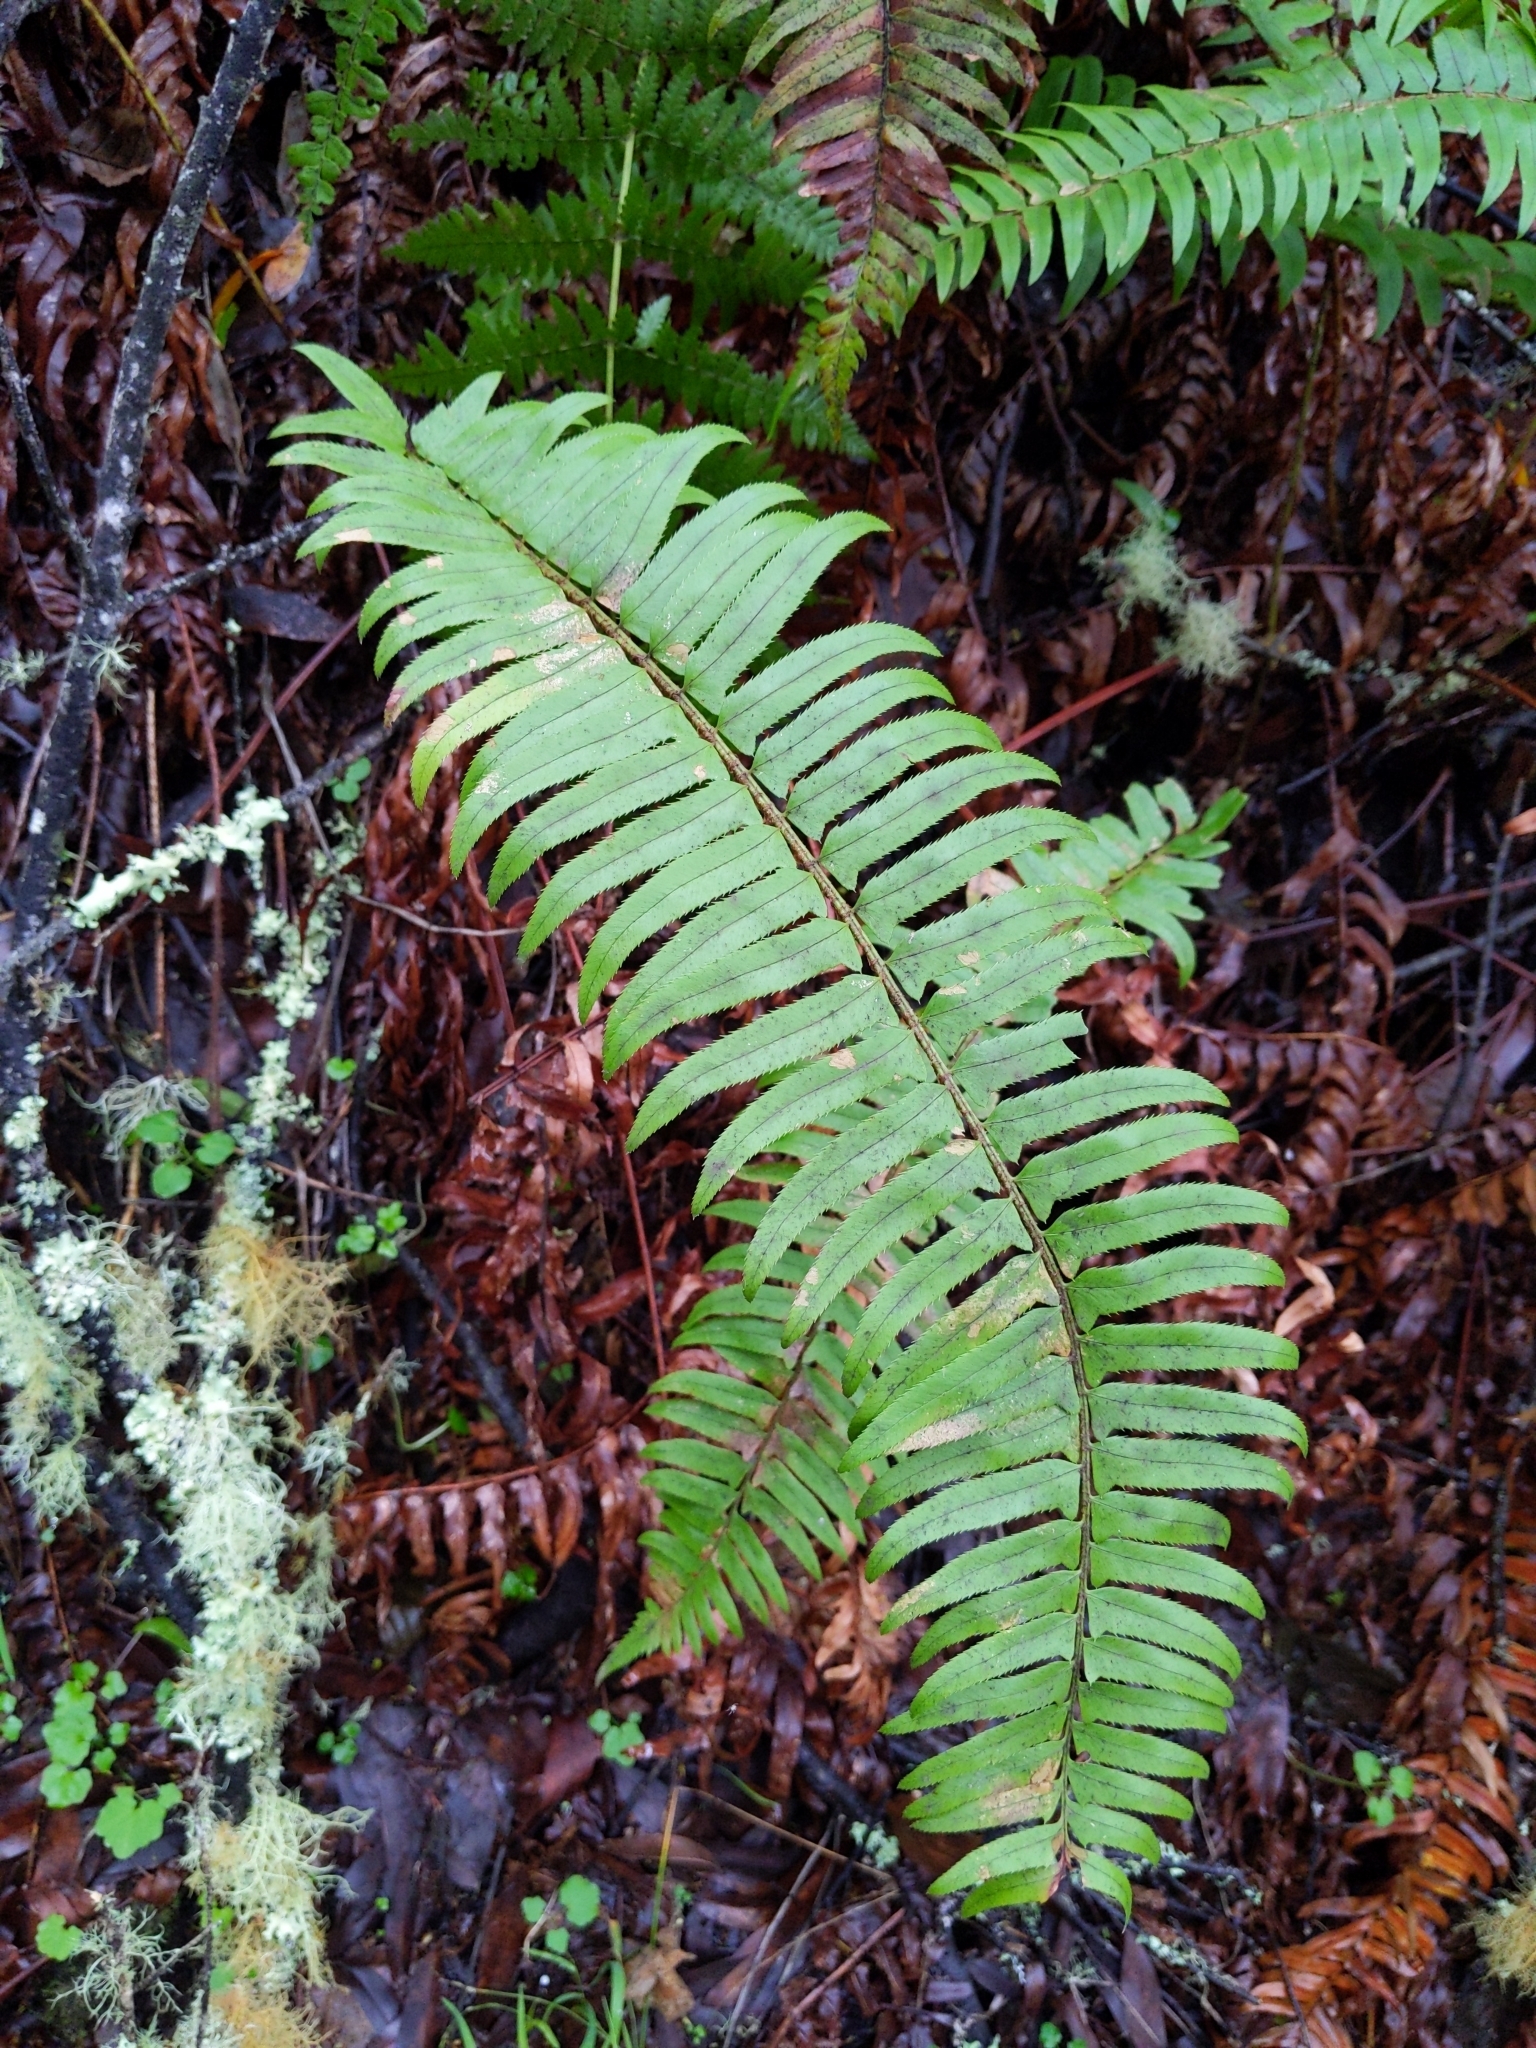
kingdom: Plantae
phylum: Tracheophyta
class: Polypodiopsida
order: Polypodiales
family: Dryopteridaceae
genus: Polystichum
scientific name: Polystichum munitum
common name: Western sword-fern
